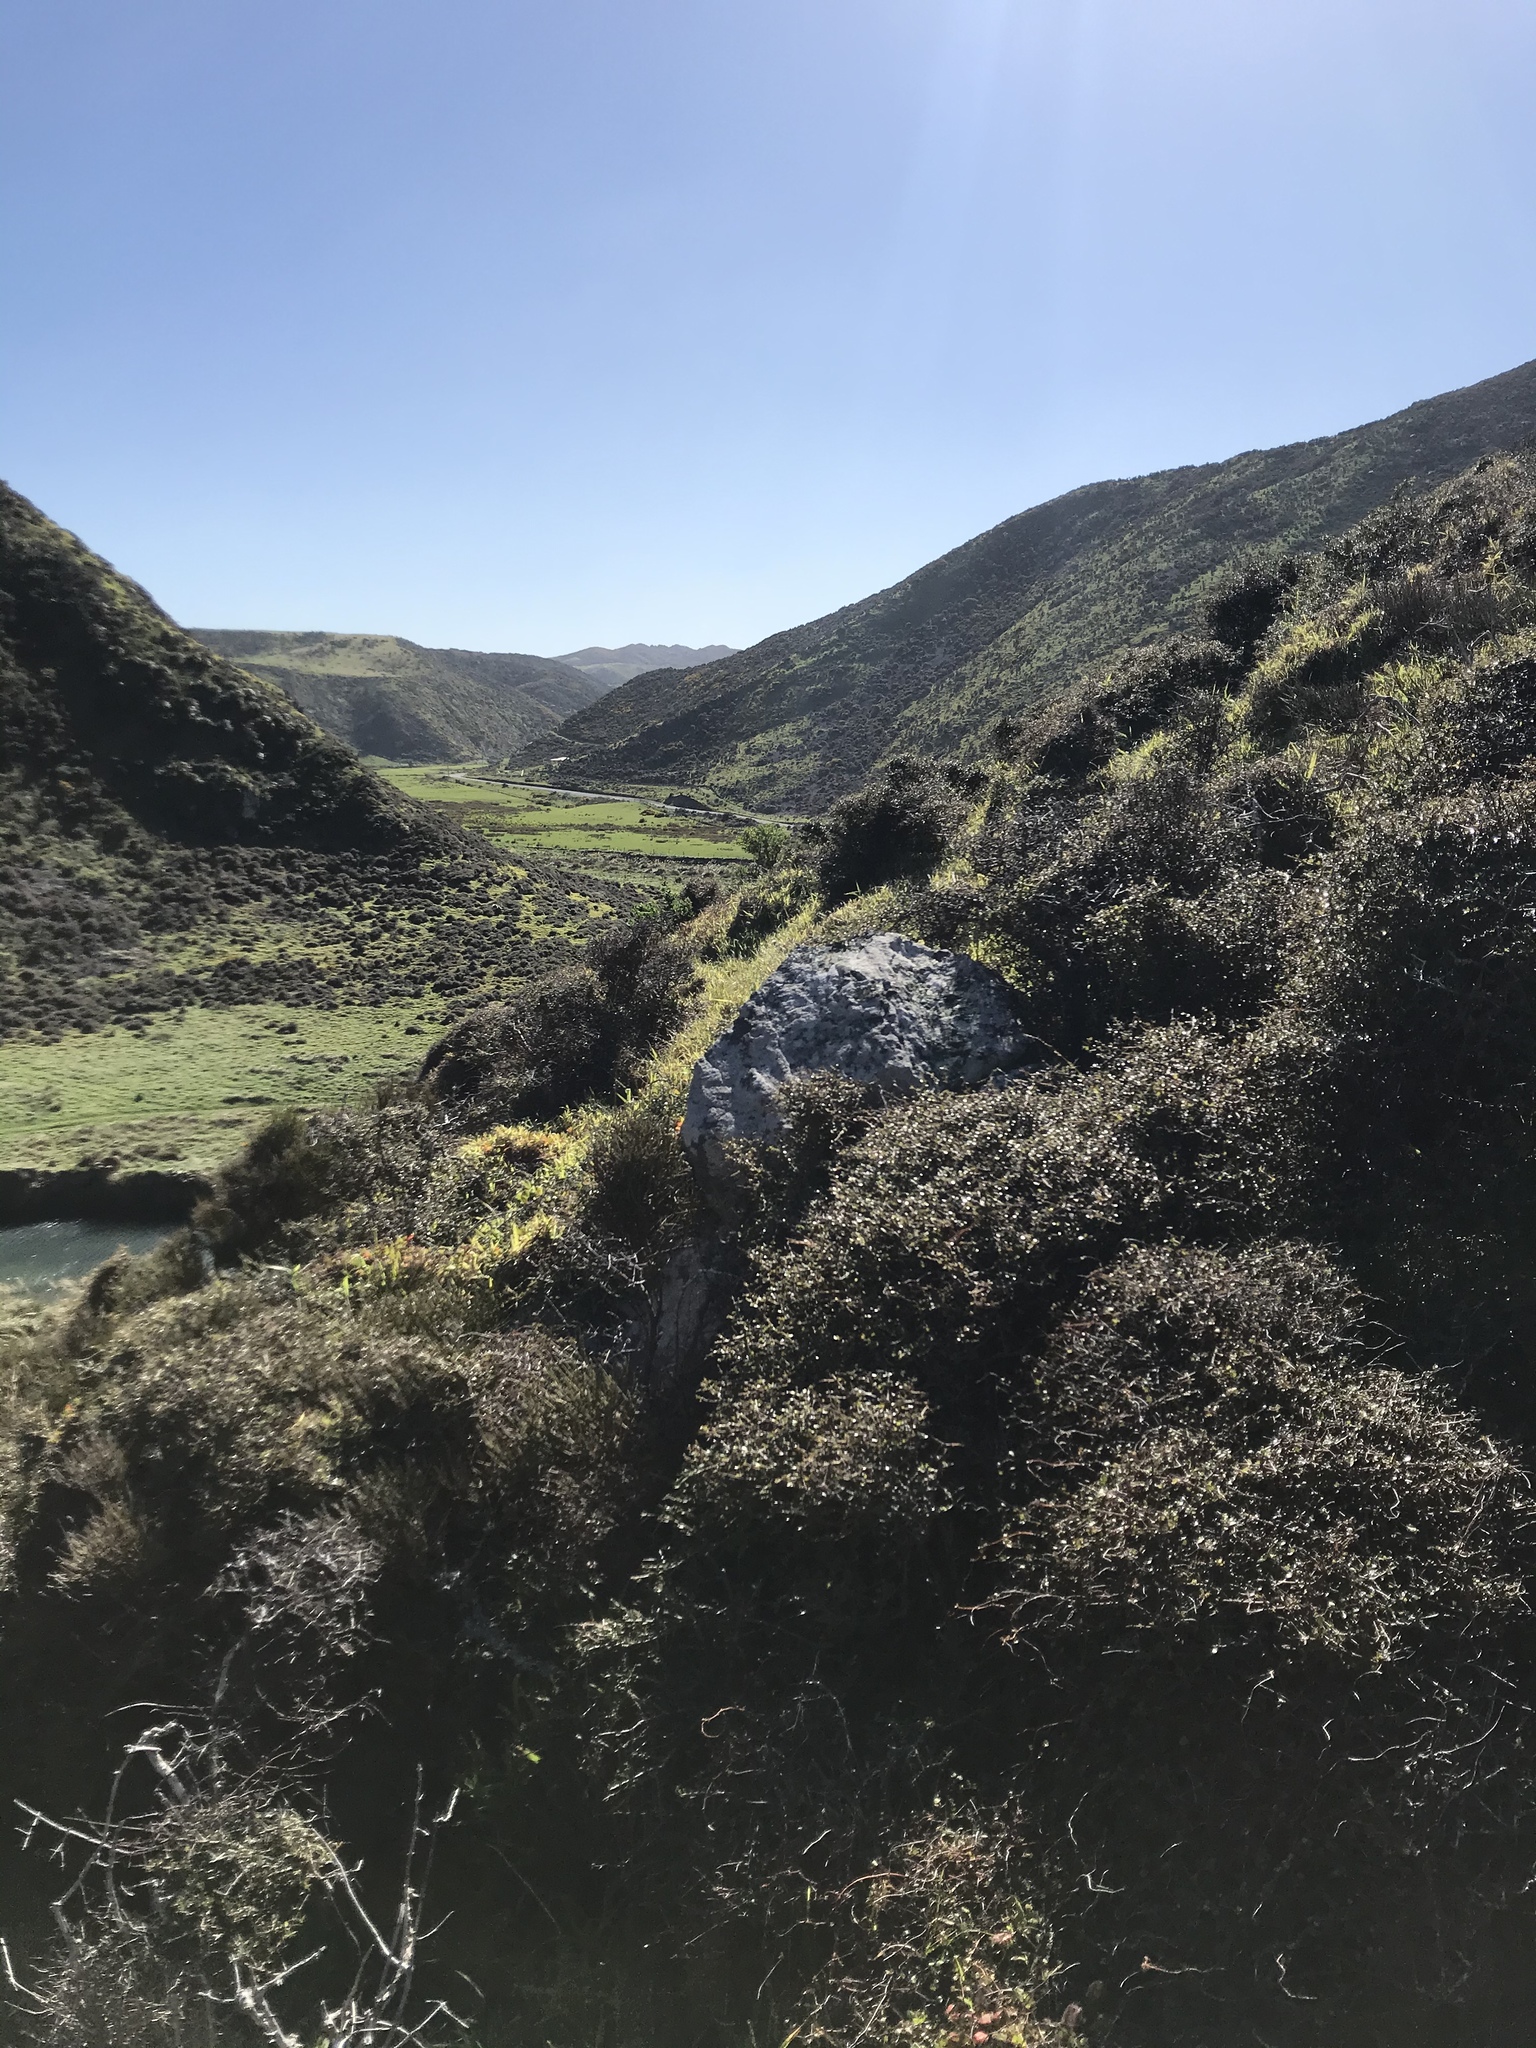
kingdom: Plantae
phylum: Tracheophyta
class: Magnoliopsida
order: Gentianales
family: Rubiaceae
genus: Coprosma
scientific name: Coprosma propinqua
